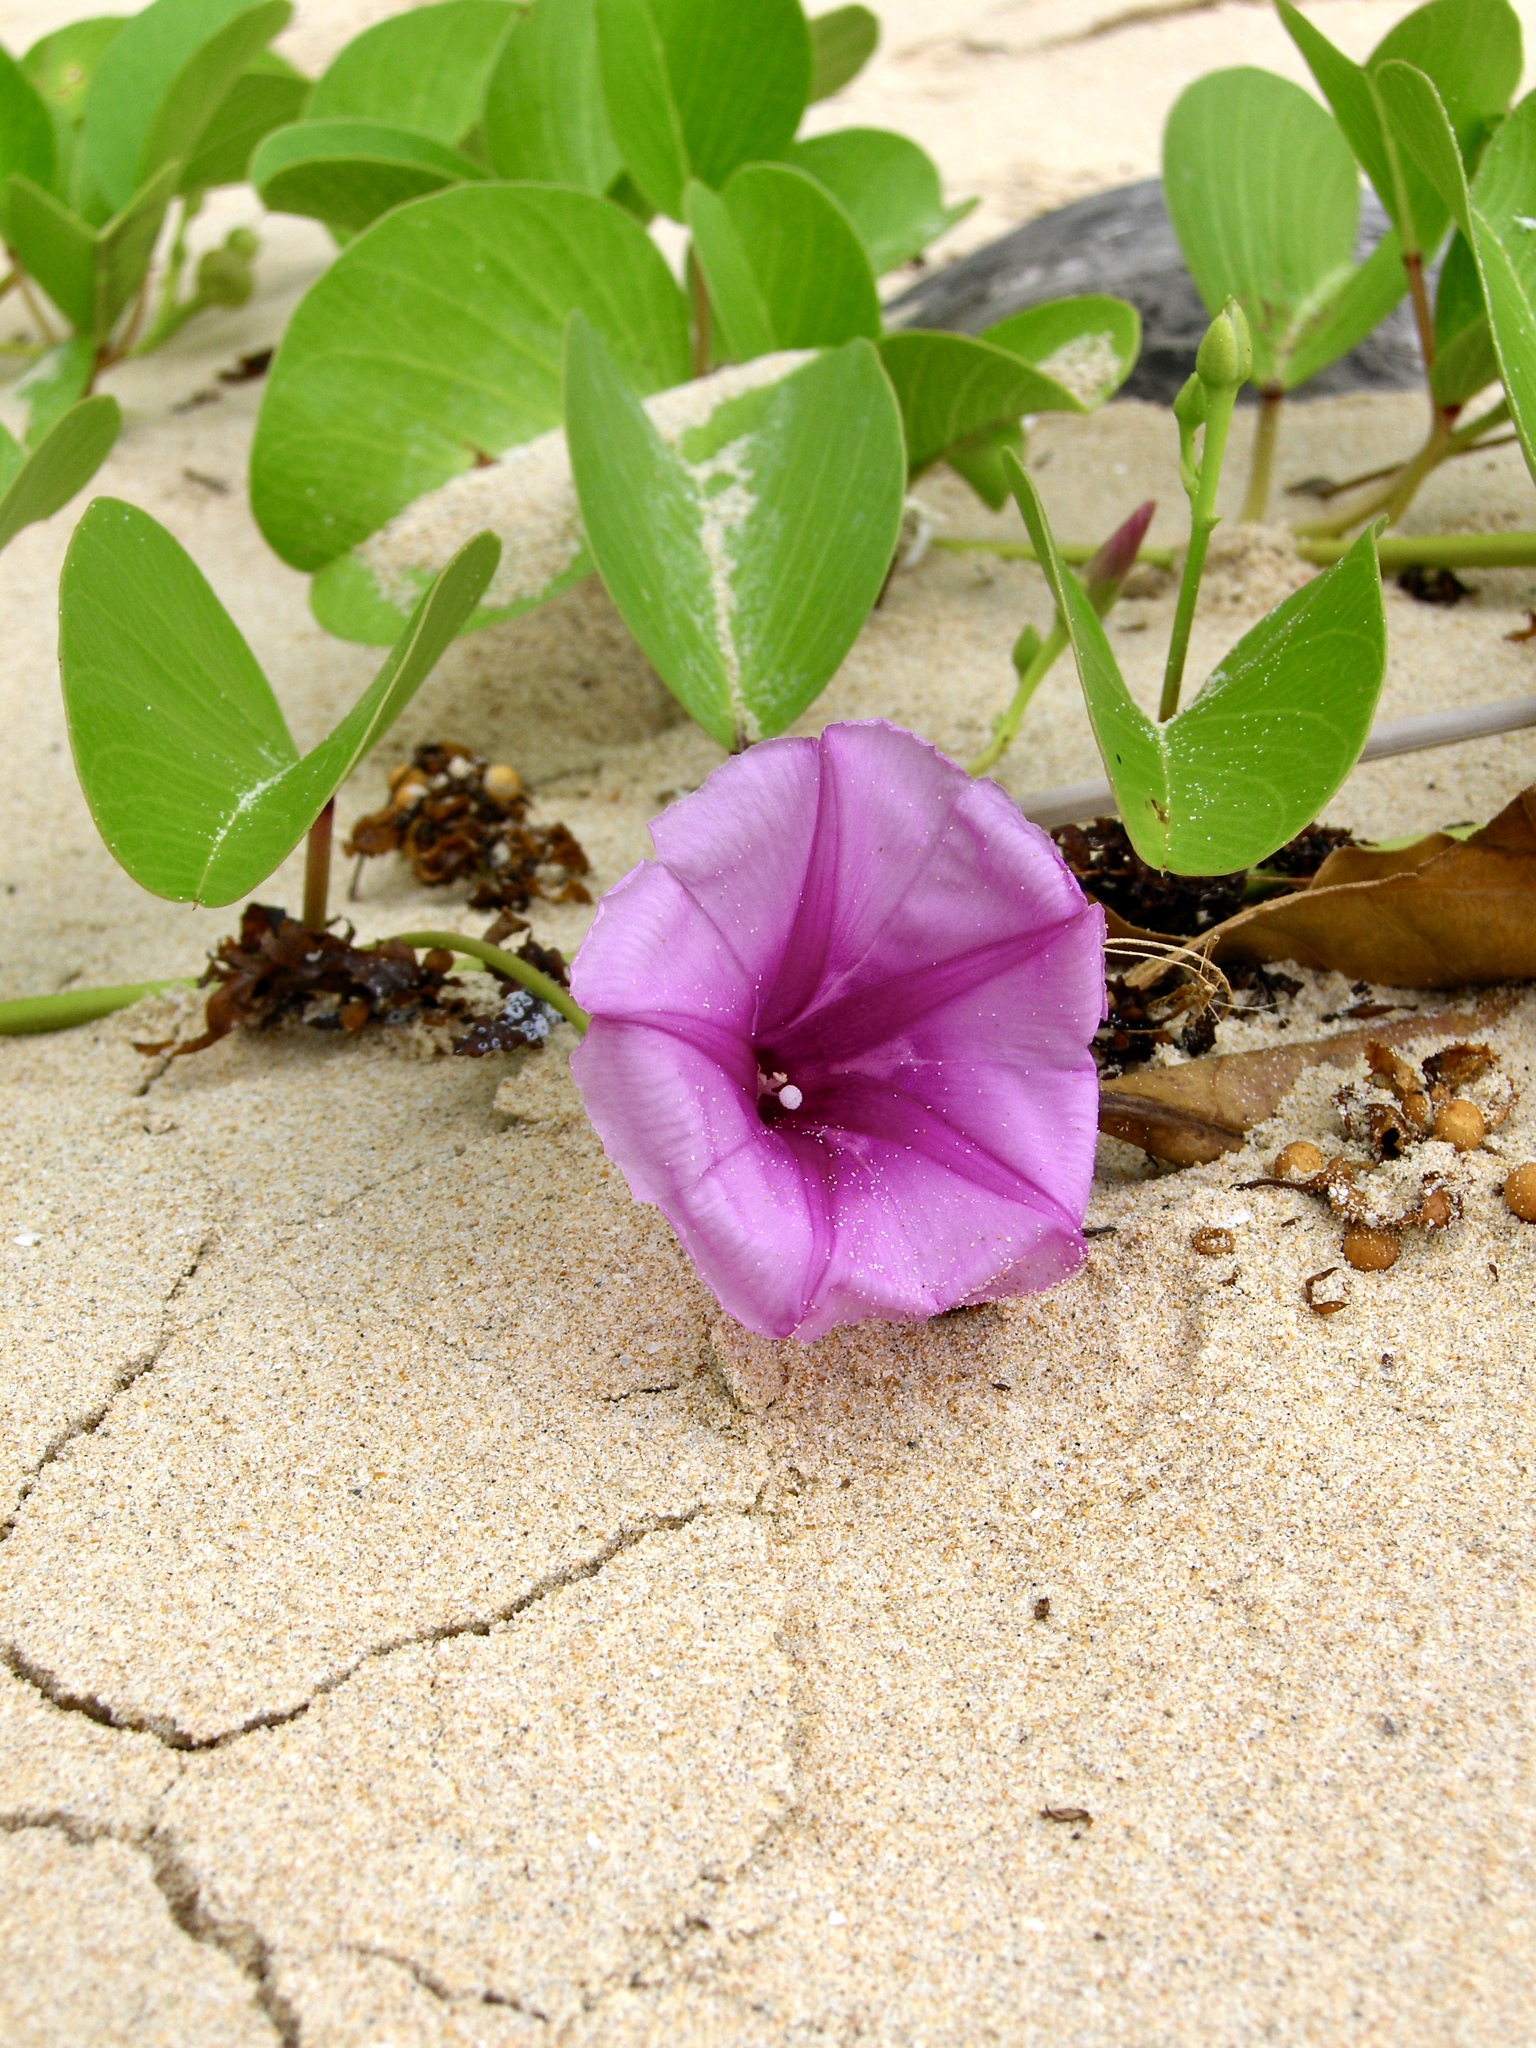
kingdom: Plantae
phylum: Tracheophyta
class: Magnoliopsida
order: Solanales
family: Convolvulaceae
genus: Ipomoea
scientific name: Ipomoea pes-caprae
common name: Beach morning glory
